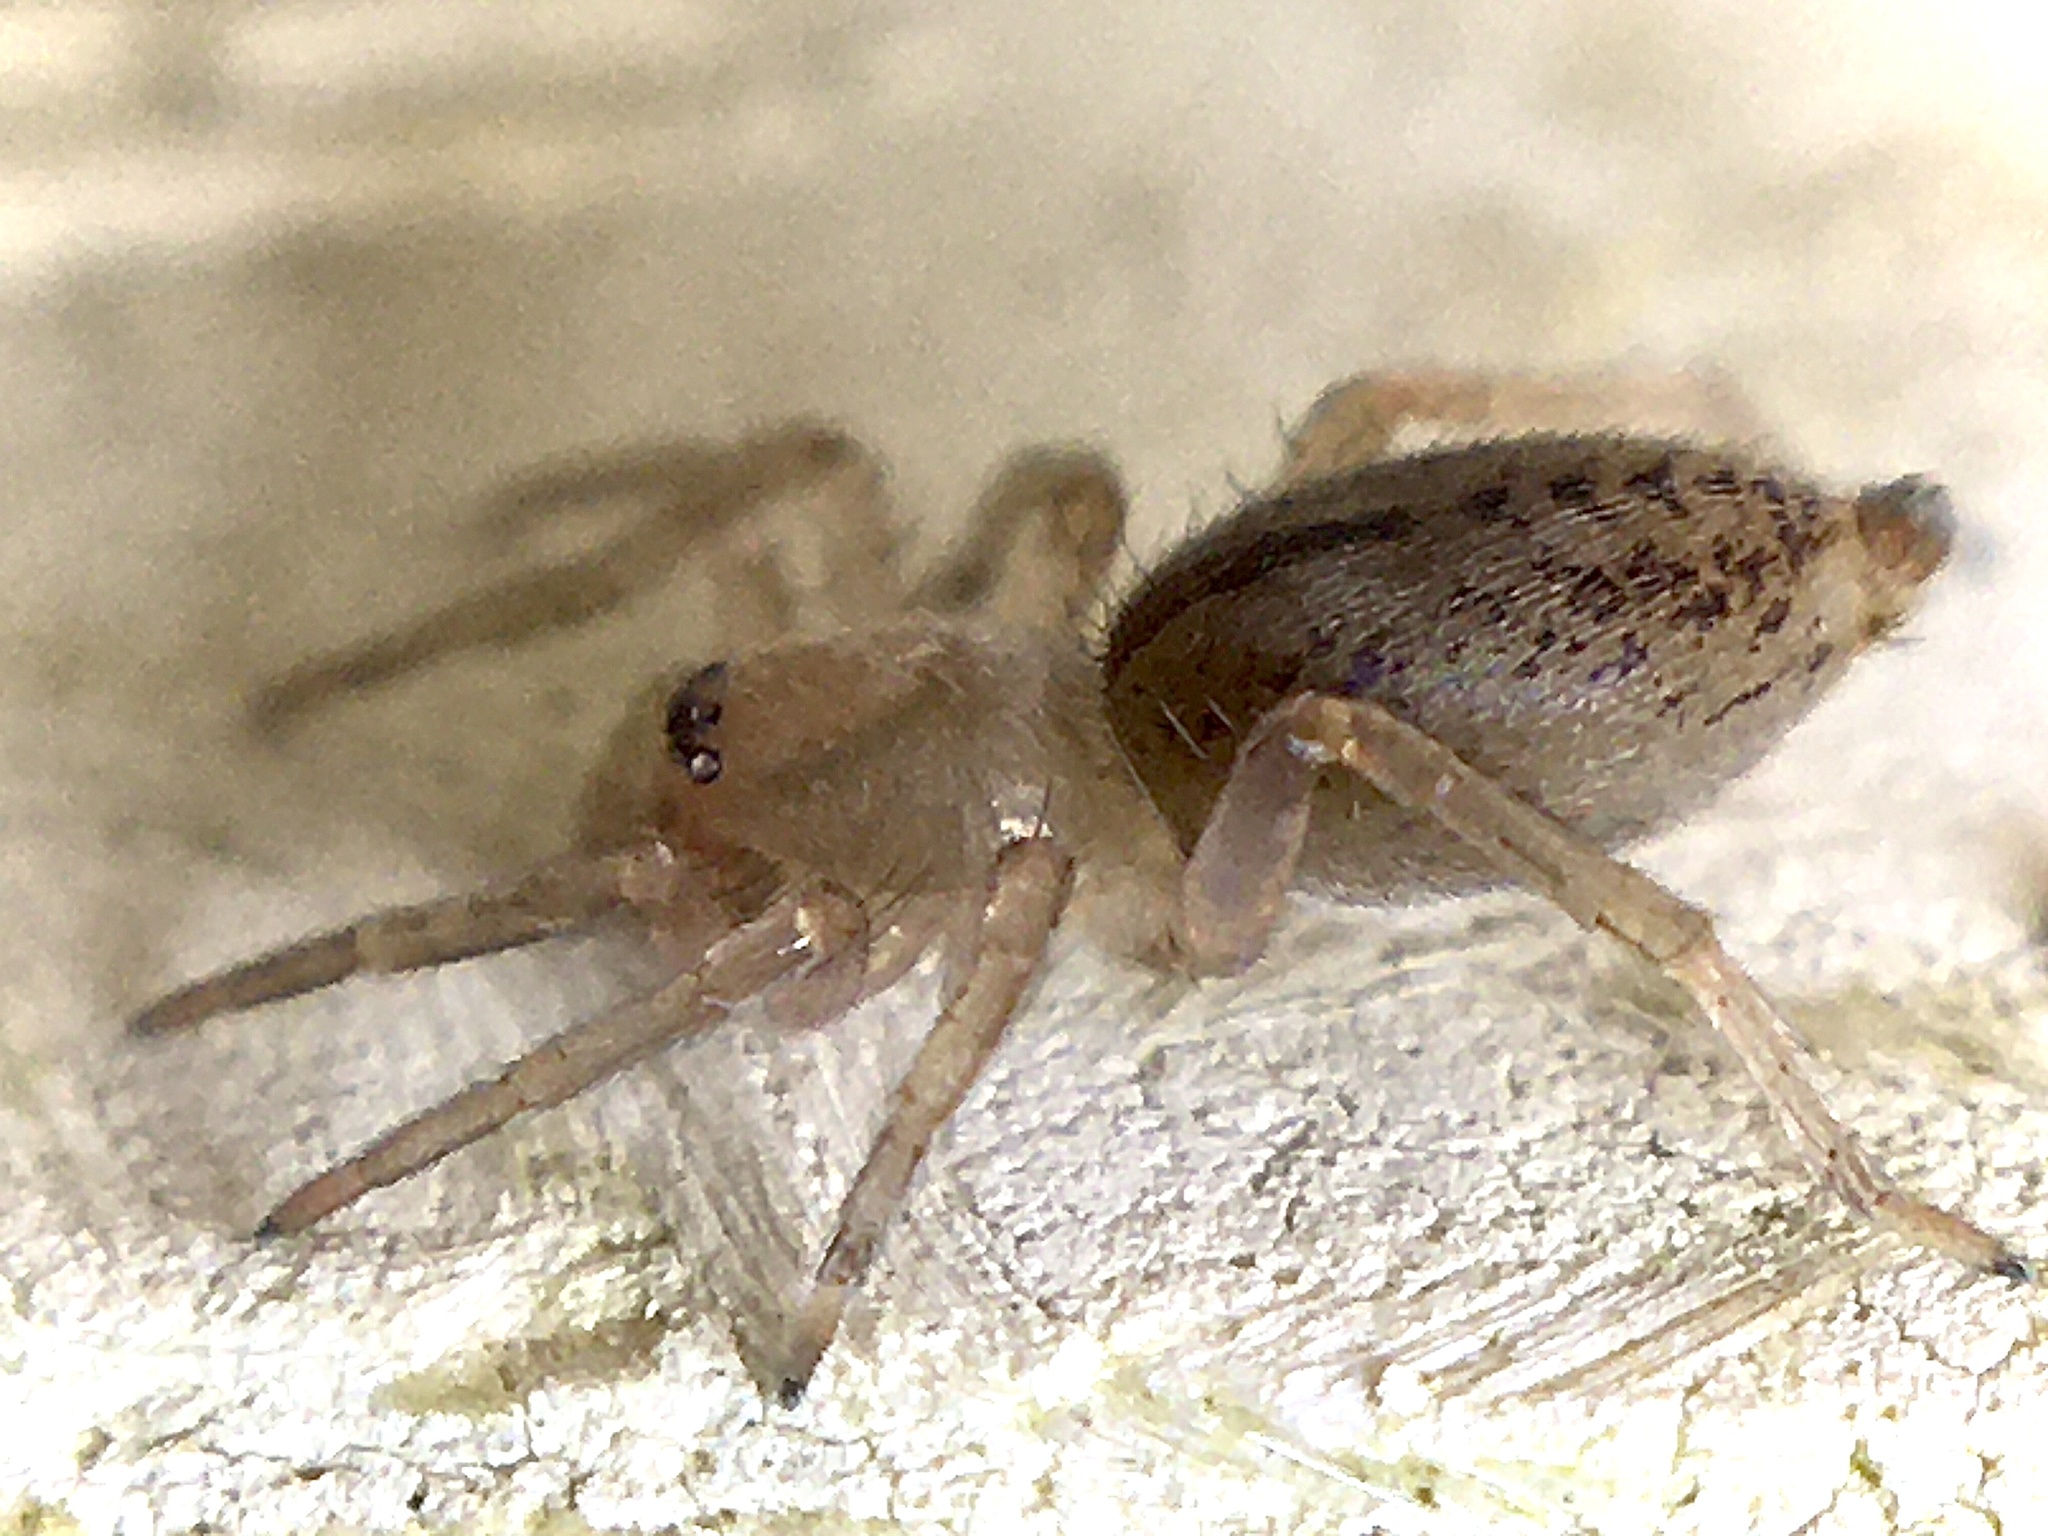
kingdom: Animalia
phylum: Arthropoda
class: Arachnida
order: Araneae
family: Clubionidae
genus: Clubiona
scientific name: Clubiona
